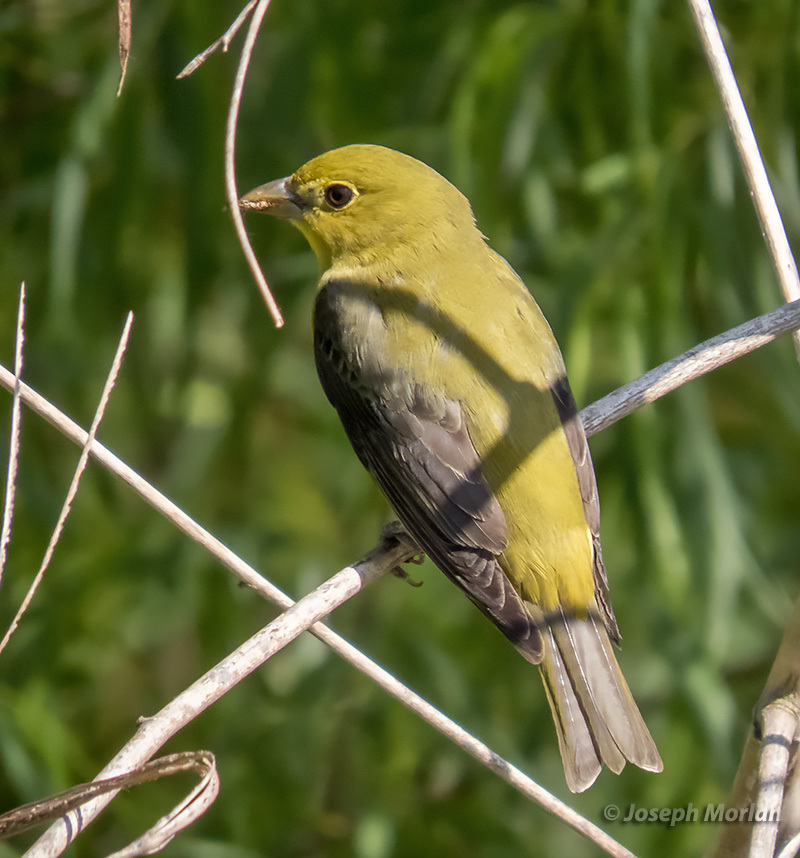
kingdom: Animalia
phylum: Chordata
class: Aves
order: Passeriformes
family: Cardinalidae
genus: Piranga
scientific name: Piranga olivacea
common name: Scarlet tanager
